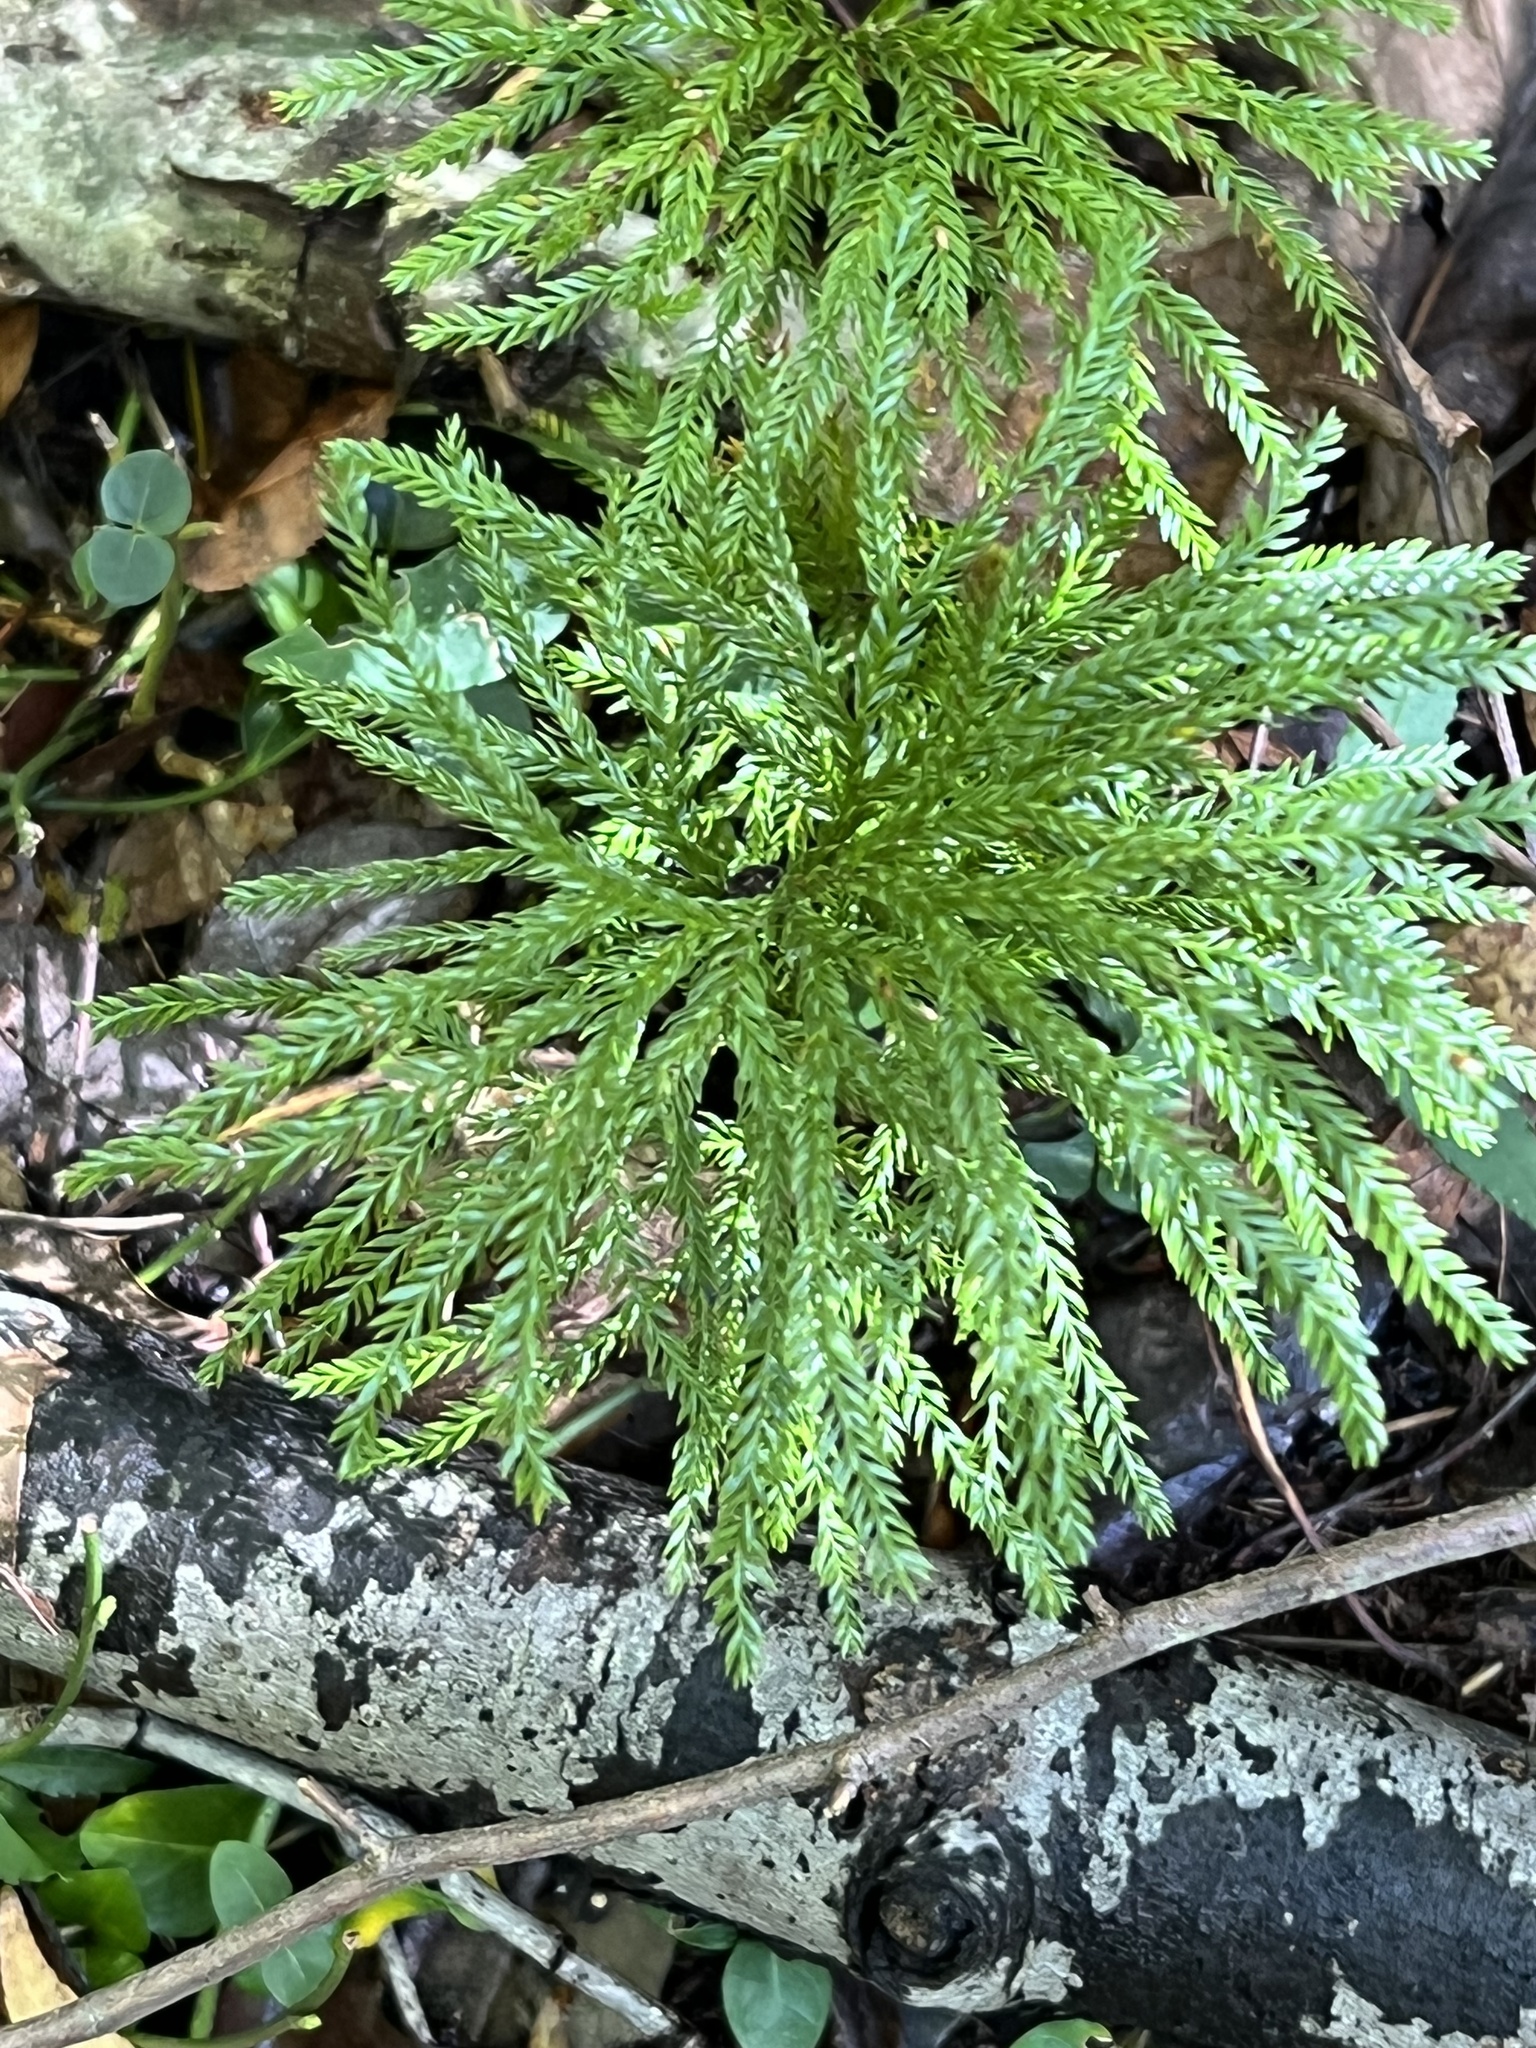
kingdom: Plantae
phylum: Tracheophyta
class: Lycopodiopsida
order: Lycopodiales
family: Lycopodiaceae
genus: Dendrolycopodium
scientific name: Dendrolycopodium obscurum
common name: Common ground-pine
